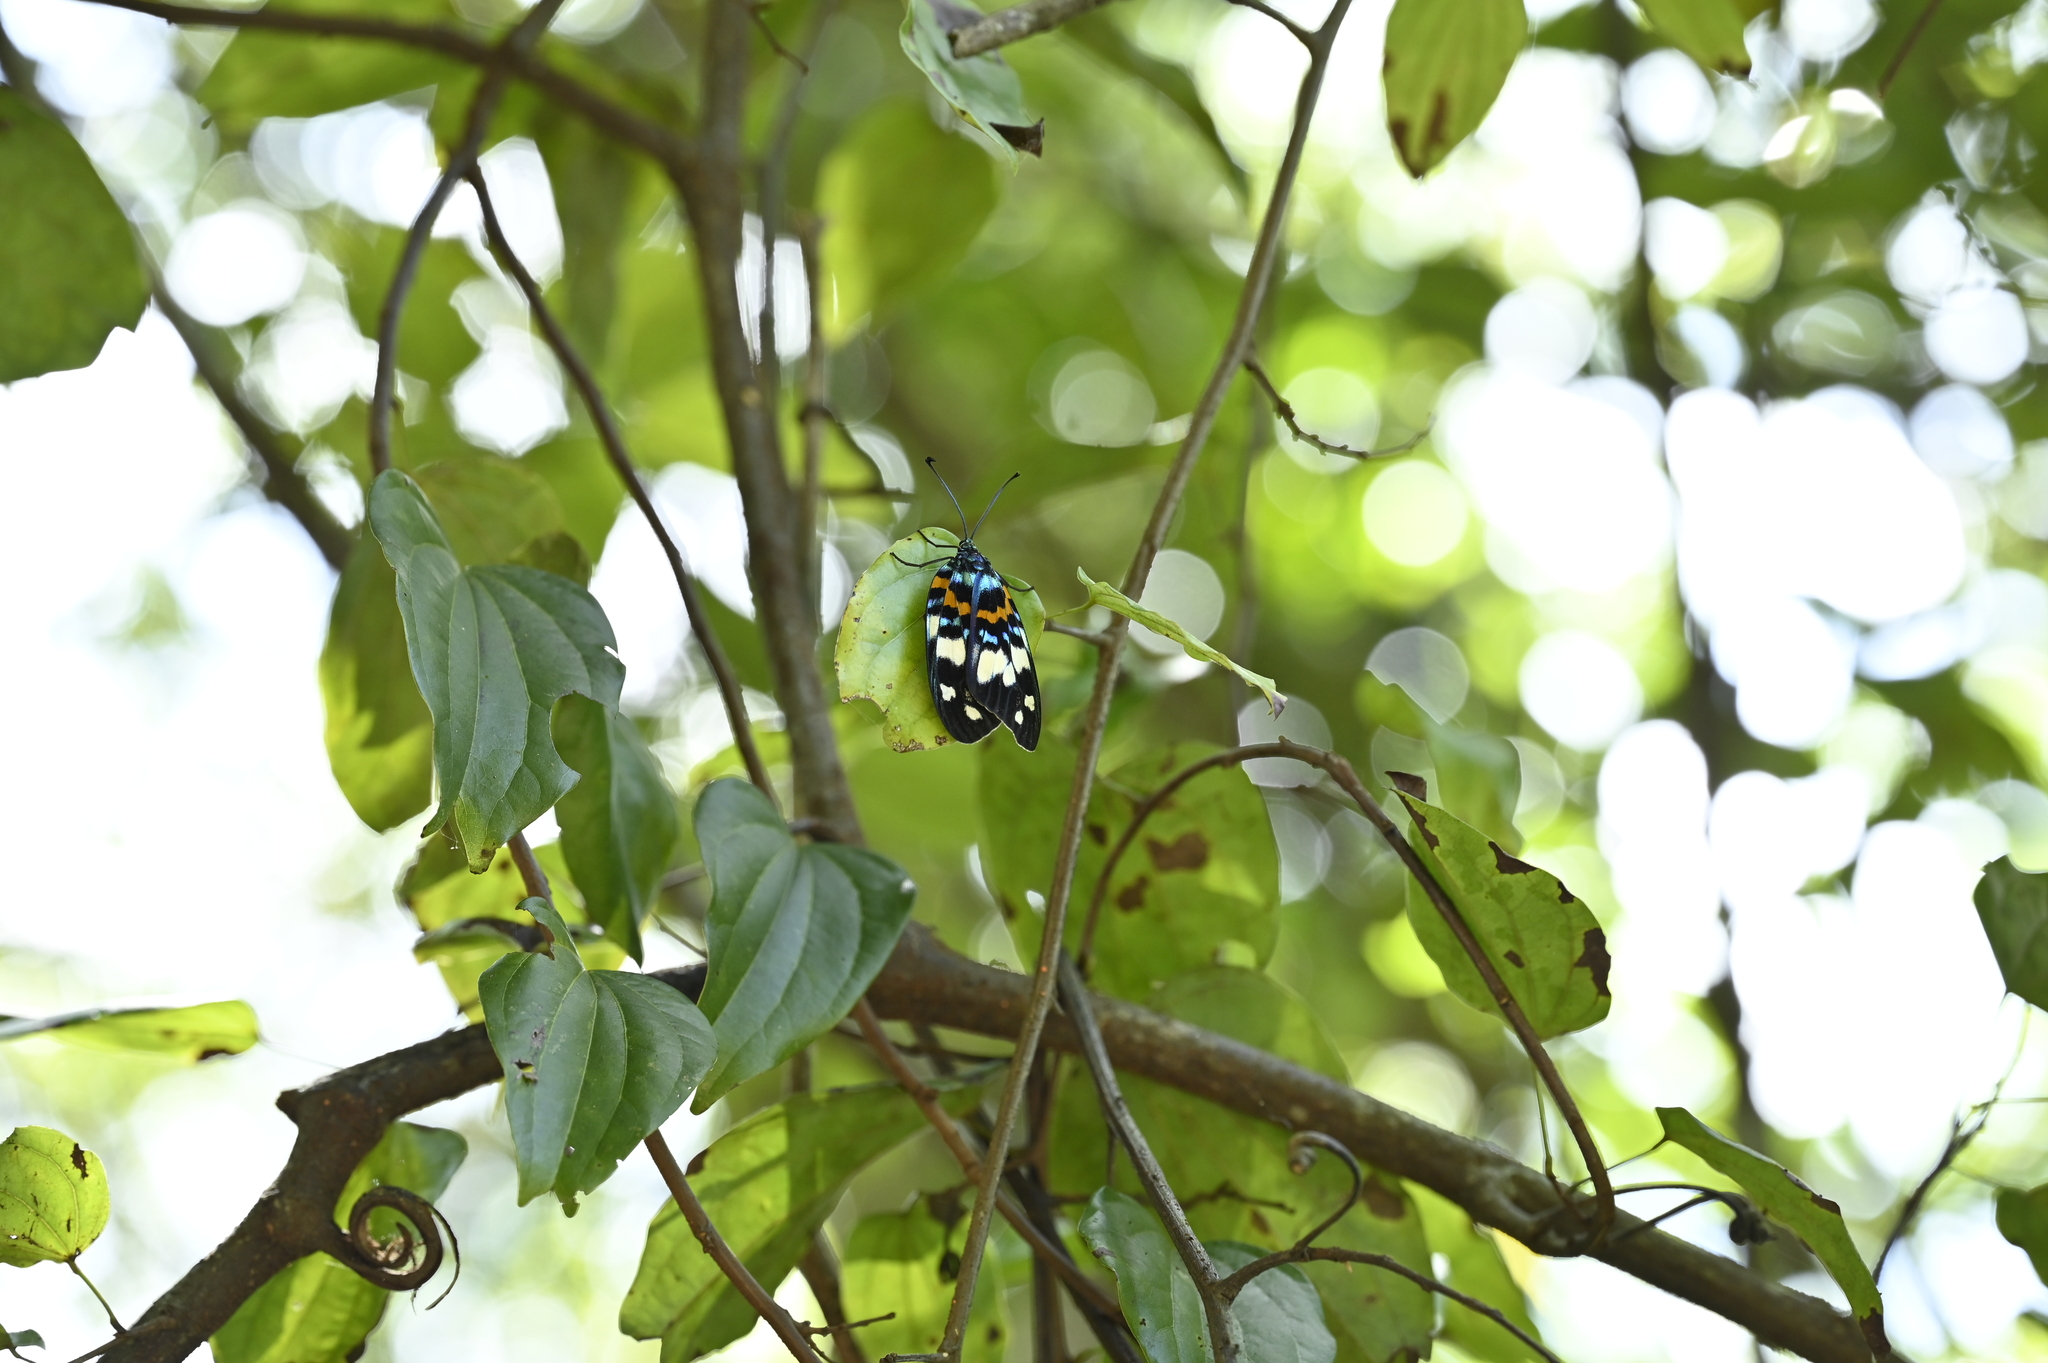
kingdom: Animalia
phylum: Arthropoda
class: Insecta
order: Lepidoptera
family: Zygaenidae
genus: Erasmia
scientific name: Erasmia pulchella
